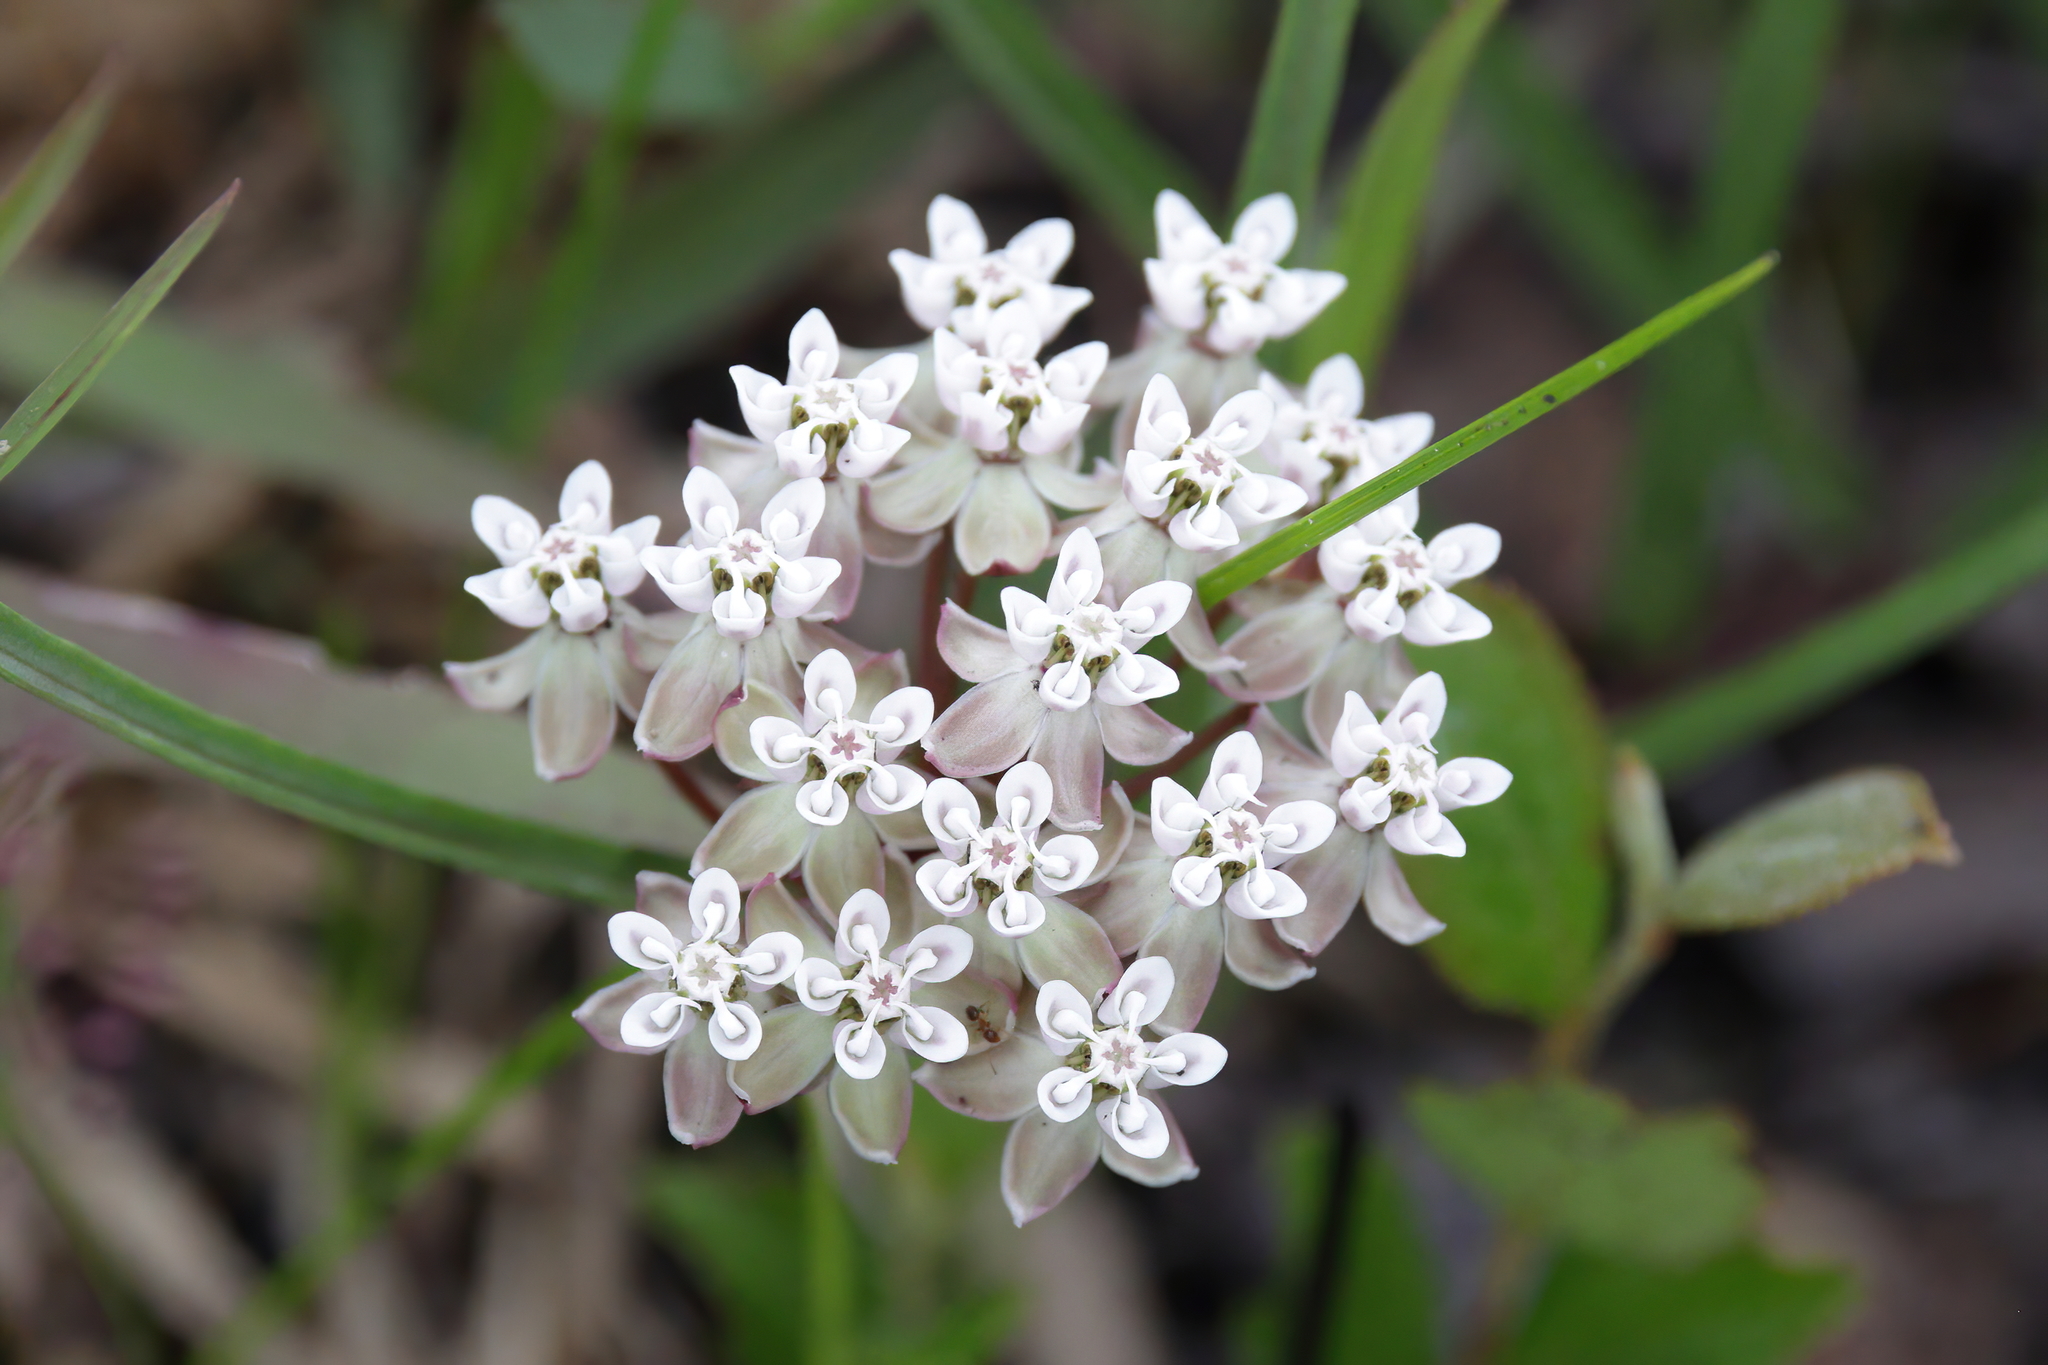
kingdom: Plantae
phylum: Tracheophyta
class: Magnoliopsida
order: Gentianales
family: Apocynaceae
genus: Asclepias
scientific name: Asclepias michauxii
